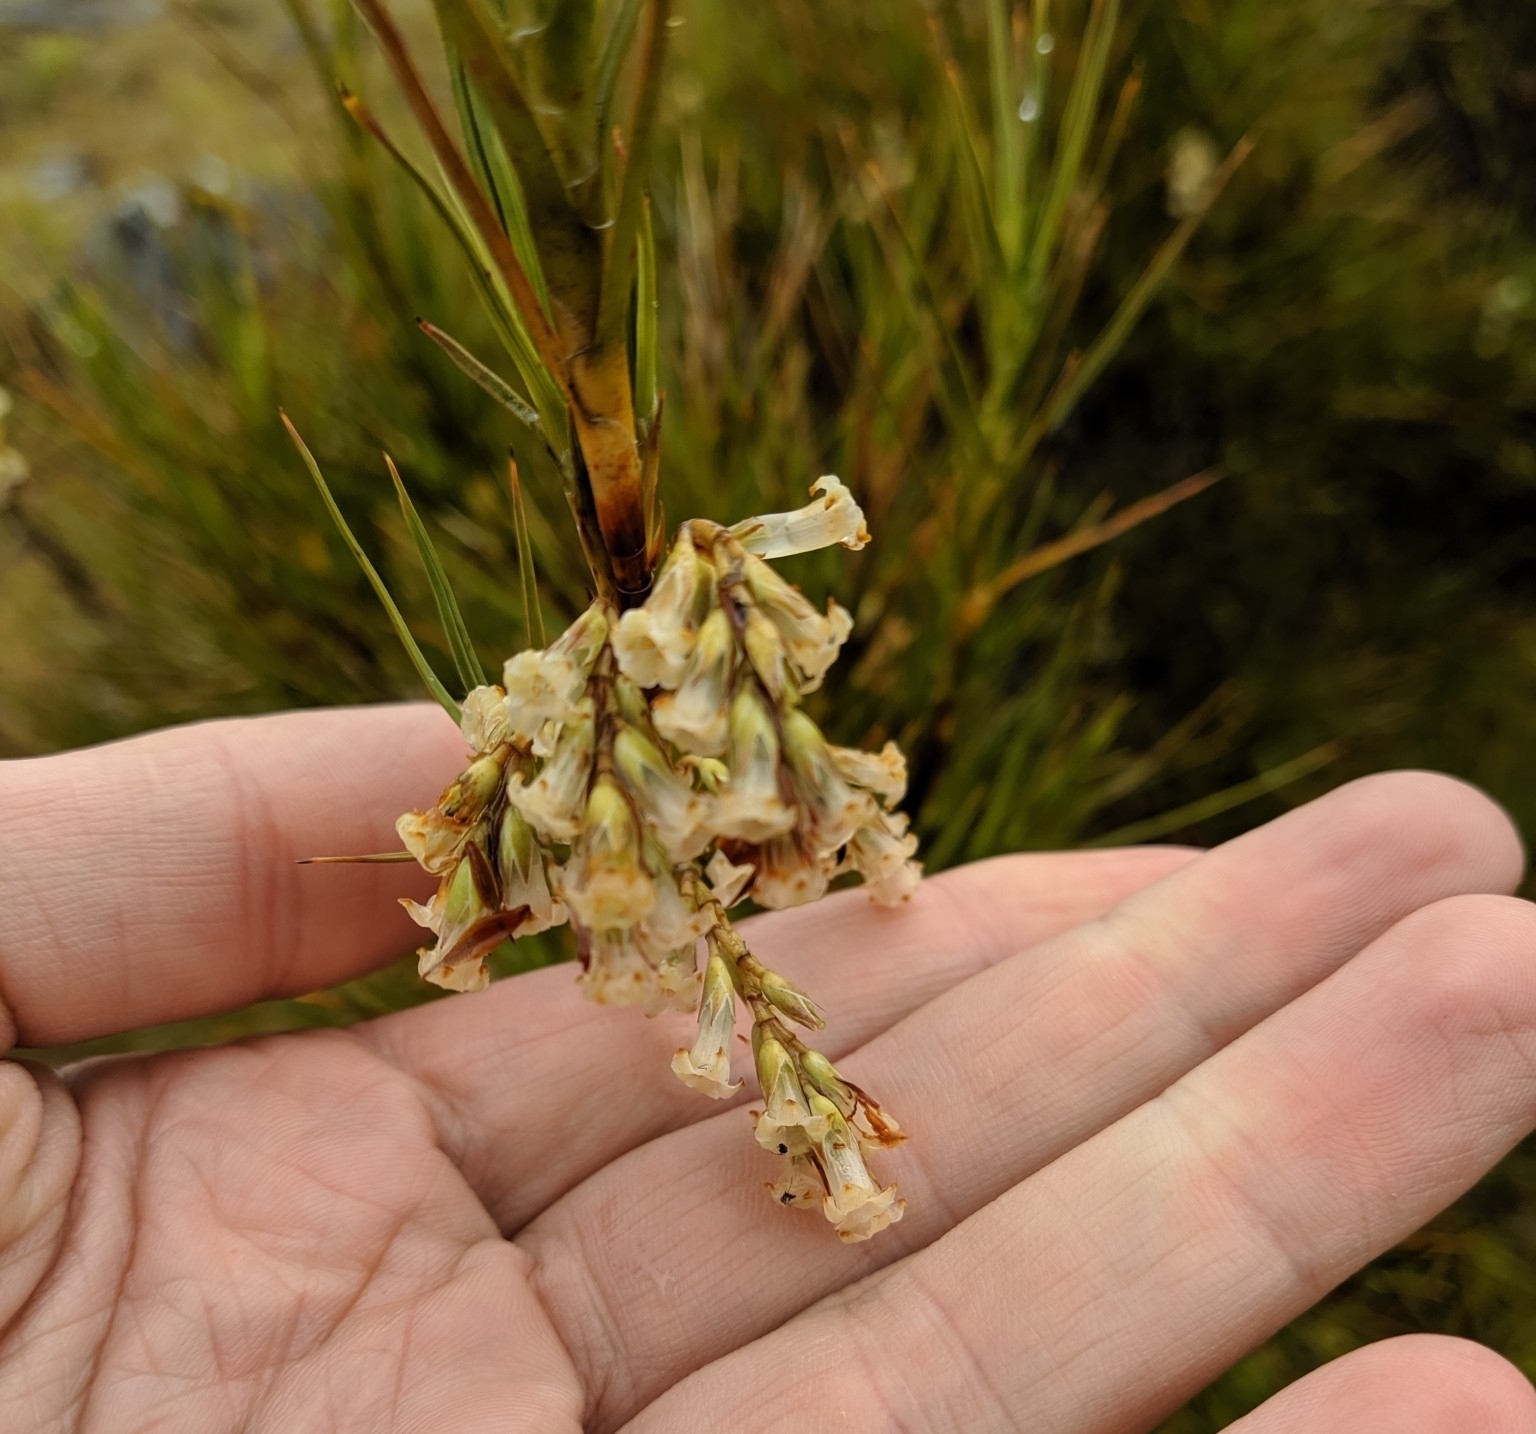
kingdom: Plantae
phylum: Tracheophyta
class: Magnoliopsida
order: Ericales
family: Ericaceae
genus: Dracophyllum
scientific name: Dracophyllum longifolium
